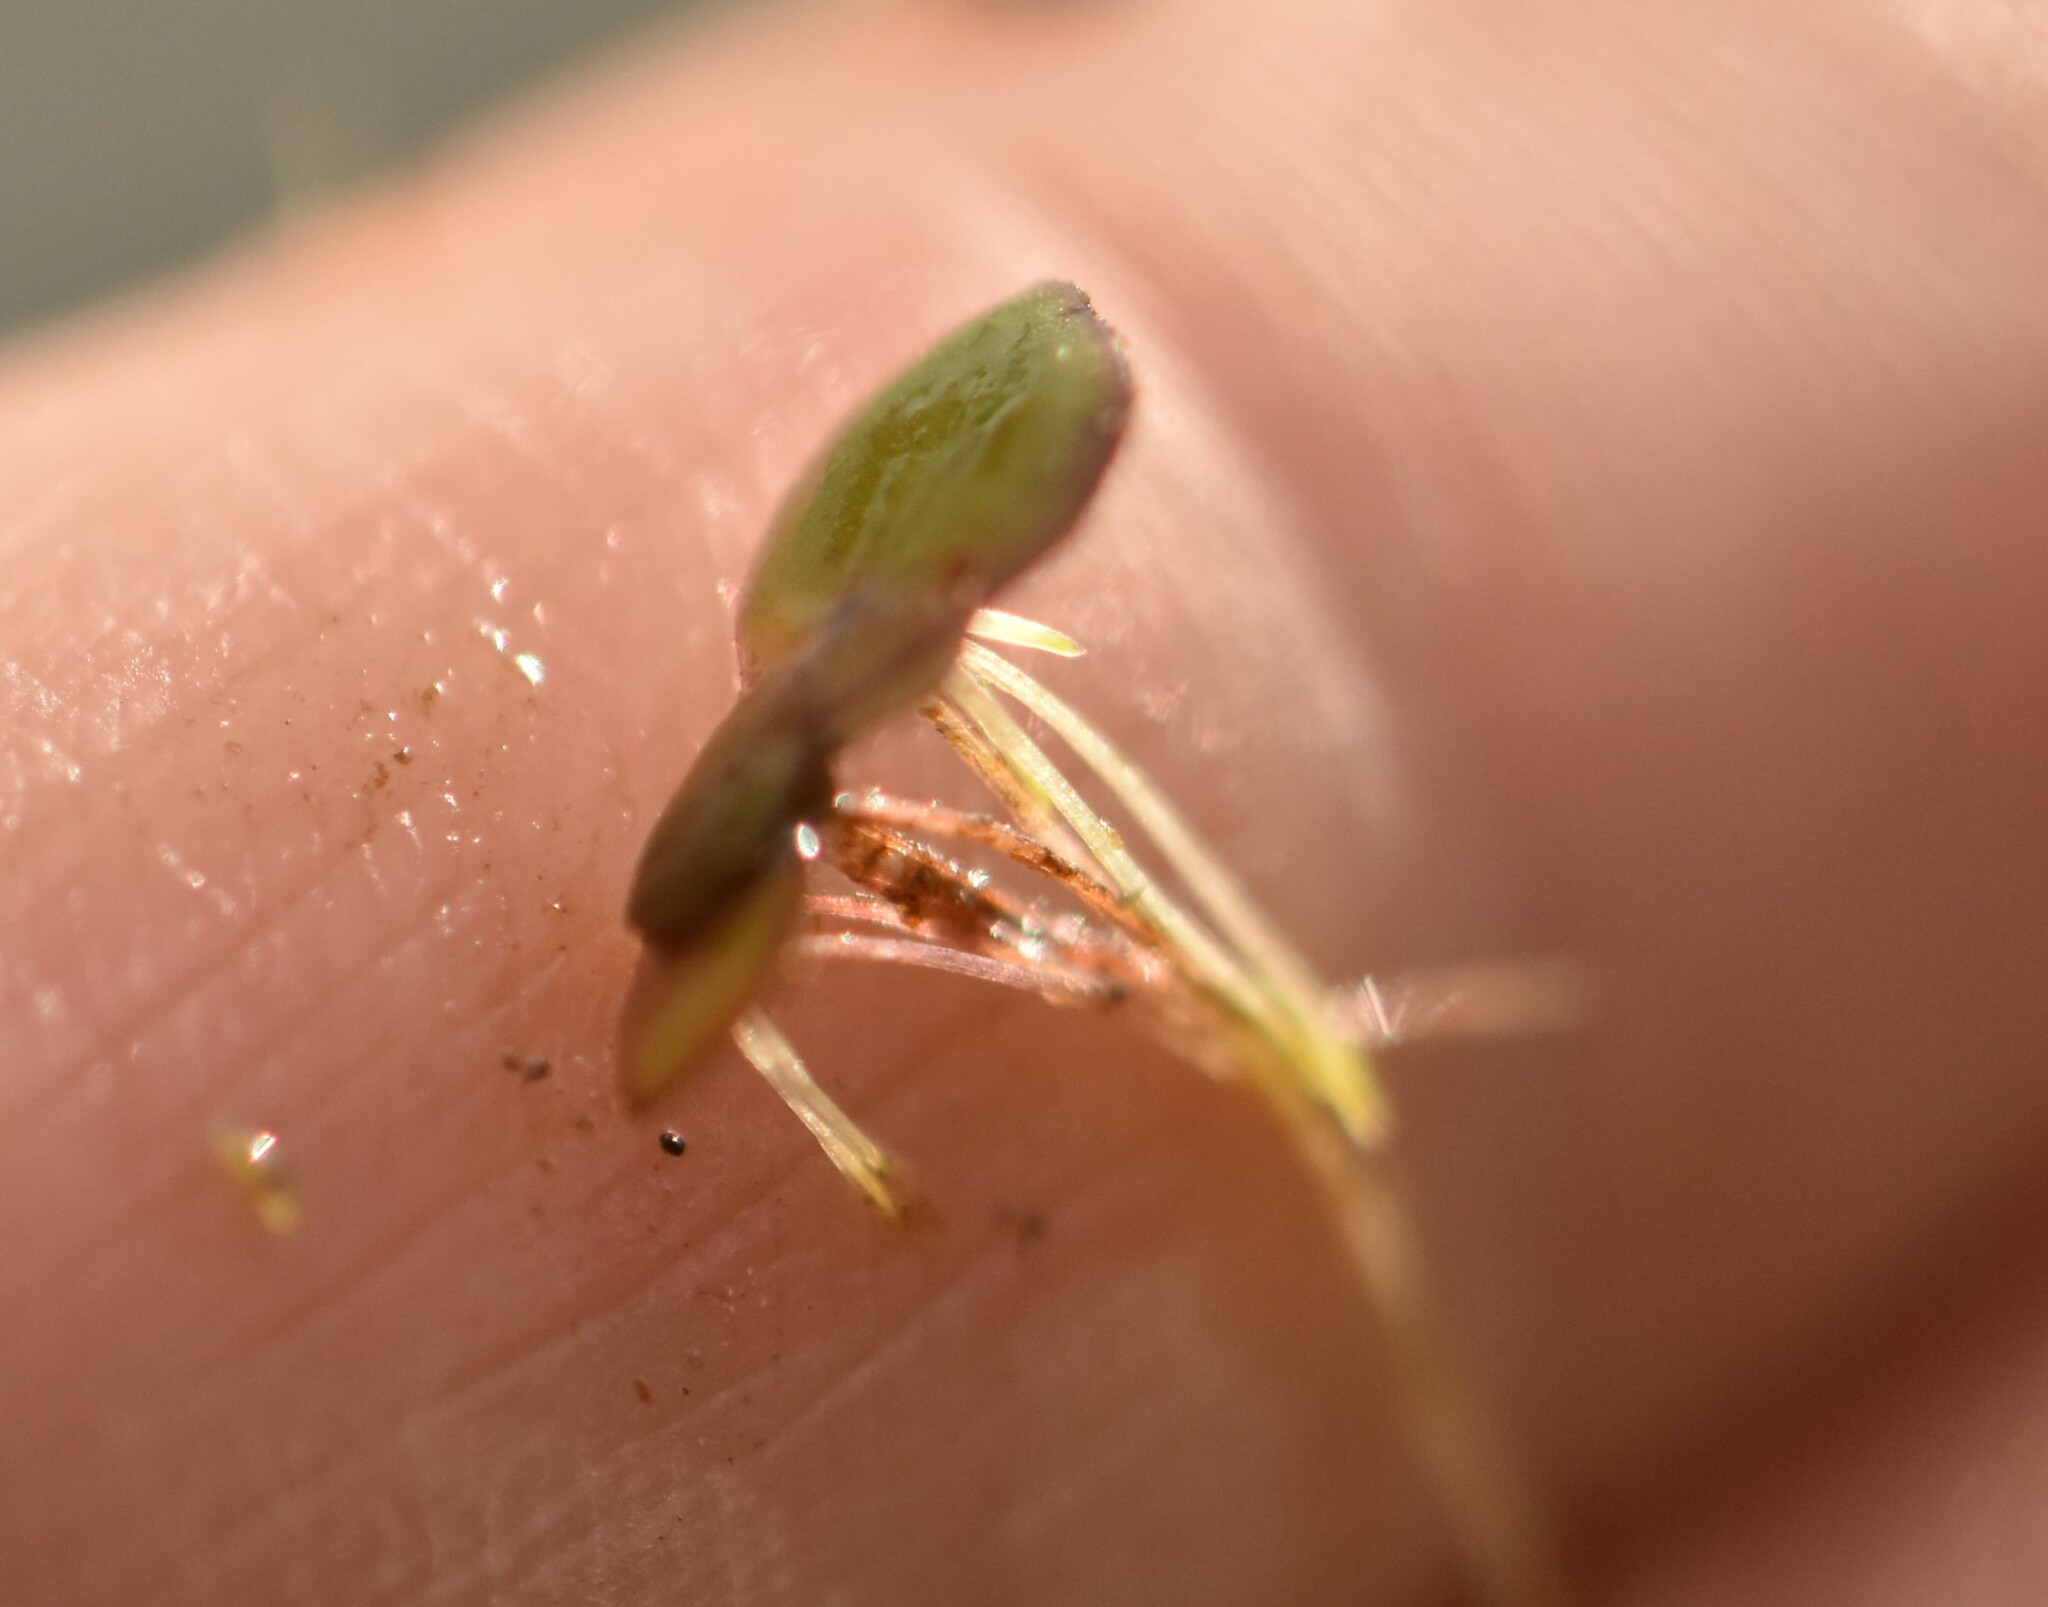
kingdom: Plantae
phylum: Tracheophyta
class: Liliopsida
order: Alismatales
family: Araceae
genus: Spirodela
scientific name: Spirodela polyrhiza
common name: Great duckweed
